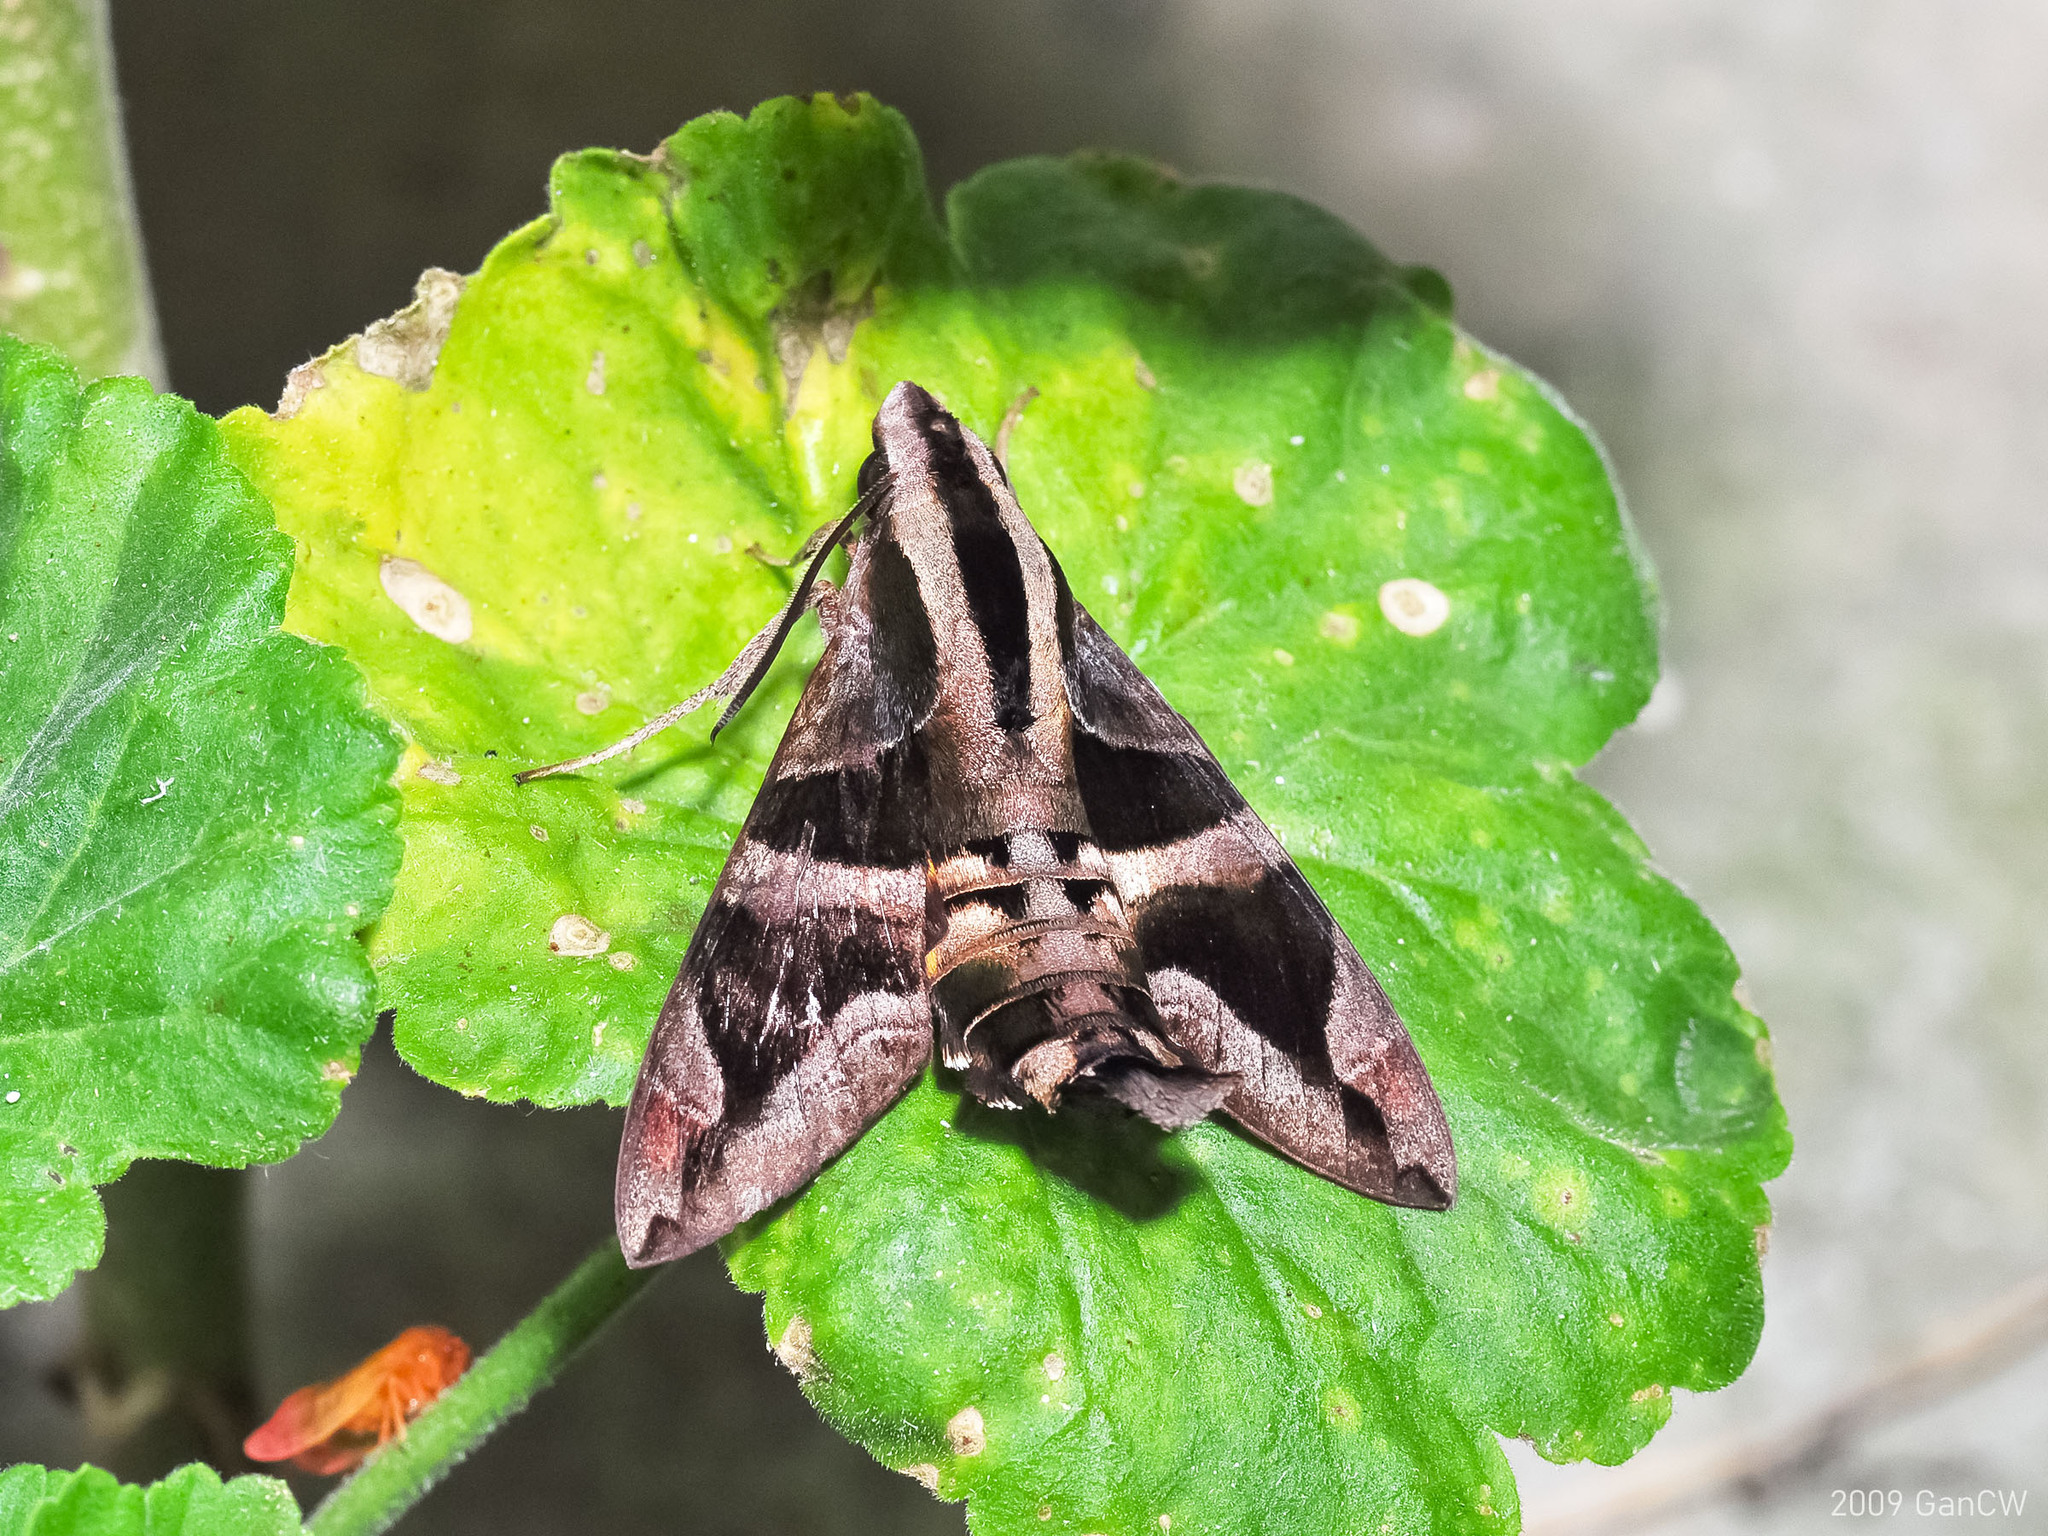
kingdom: Animalia
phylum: Arthropoda
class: Insecta
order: Lepidoptera
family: Sphingidae
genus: Macroglossum
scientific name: Macroglossum mitchellii
